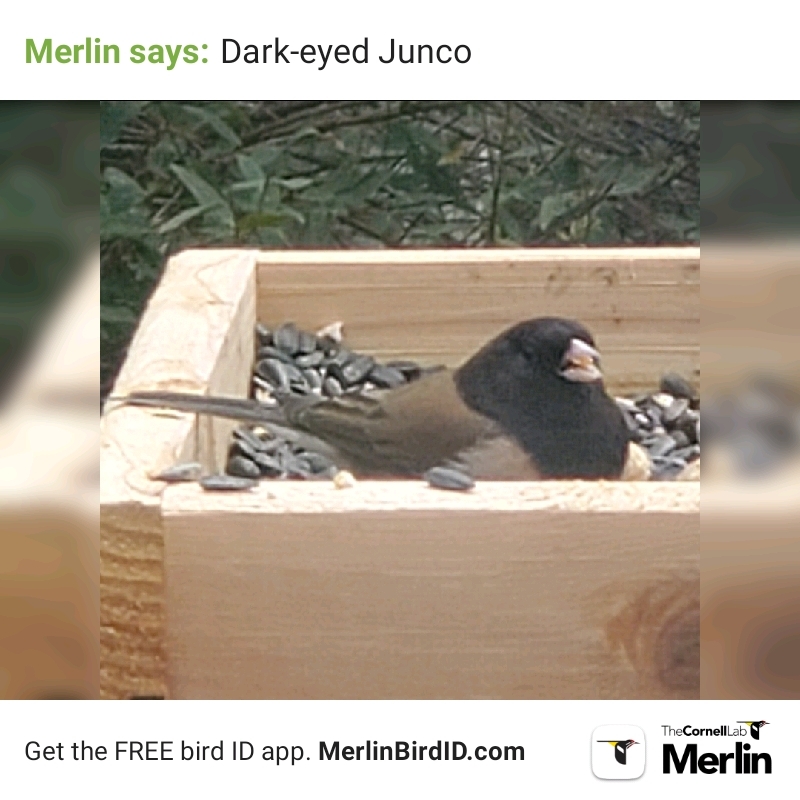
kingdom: Animalia
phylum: Chordata
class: Aves
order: Passeriformes
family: Passerellidae
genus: Junco
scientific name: Junco hyemalis
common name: Dark-eyed junco
